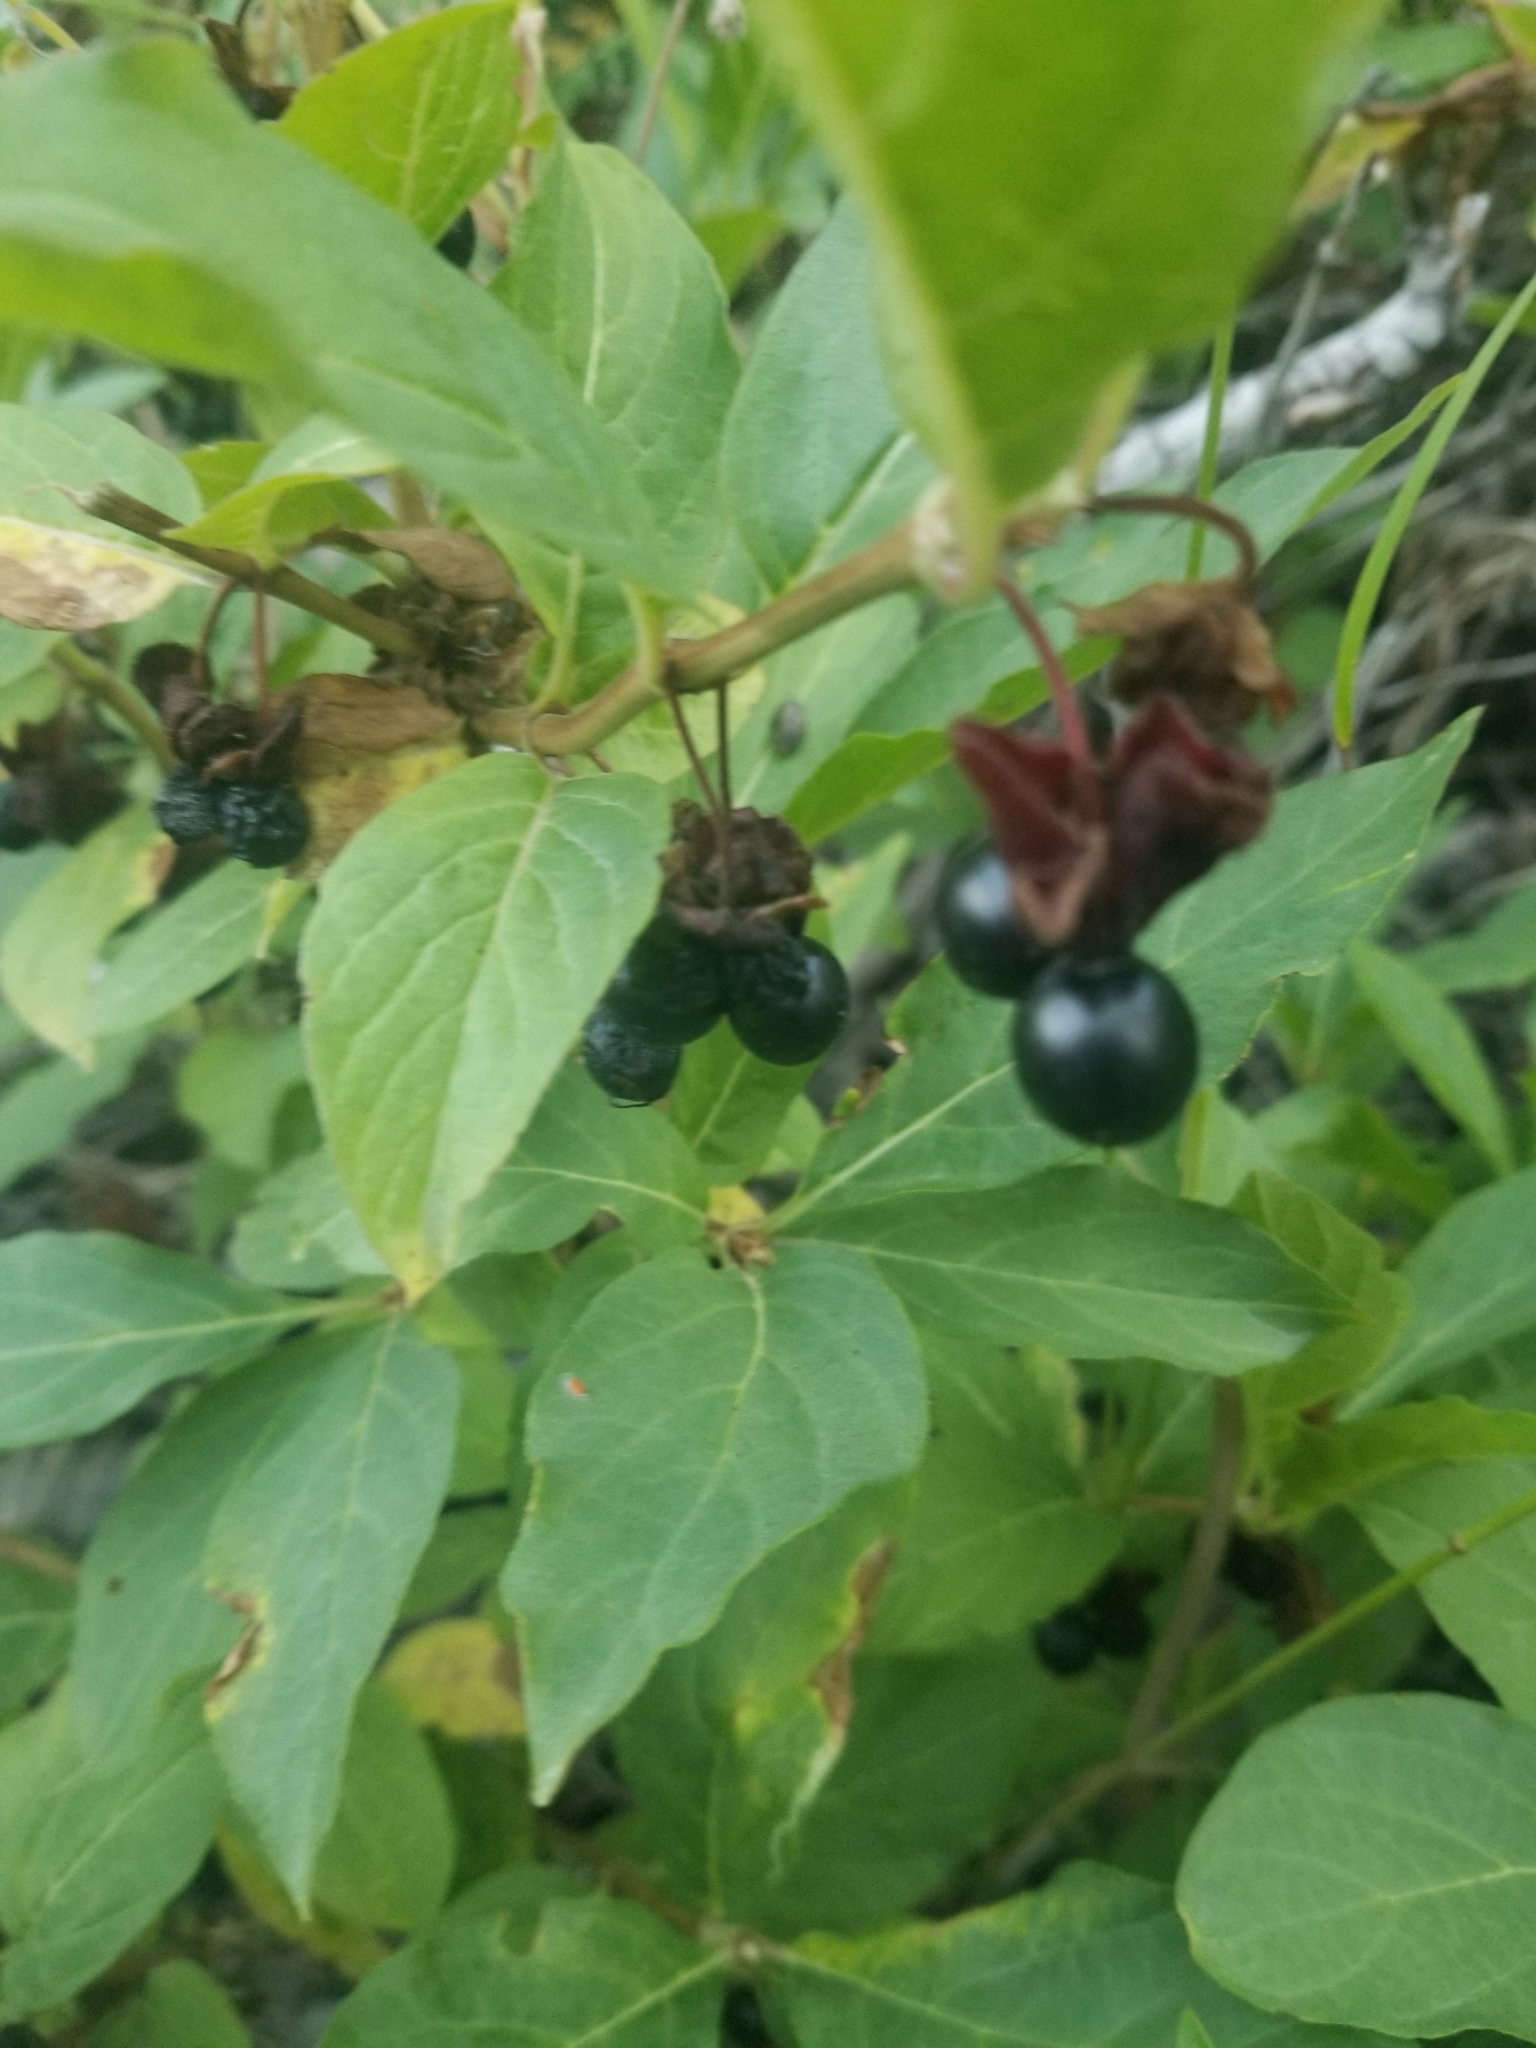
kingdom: Plantae
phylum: Tracheophyta
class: Magnoliopsida
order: Dipsacales
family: Caprifoliaceae
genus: Lonicera
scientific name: Lonicera involucrata
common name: Californian honeysuckle
